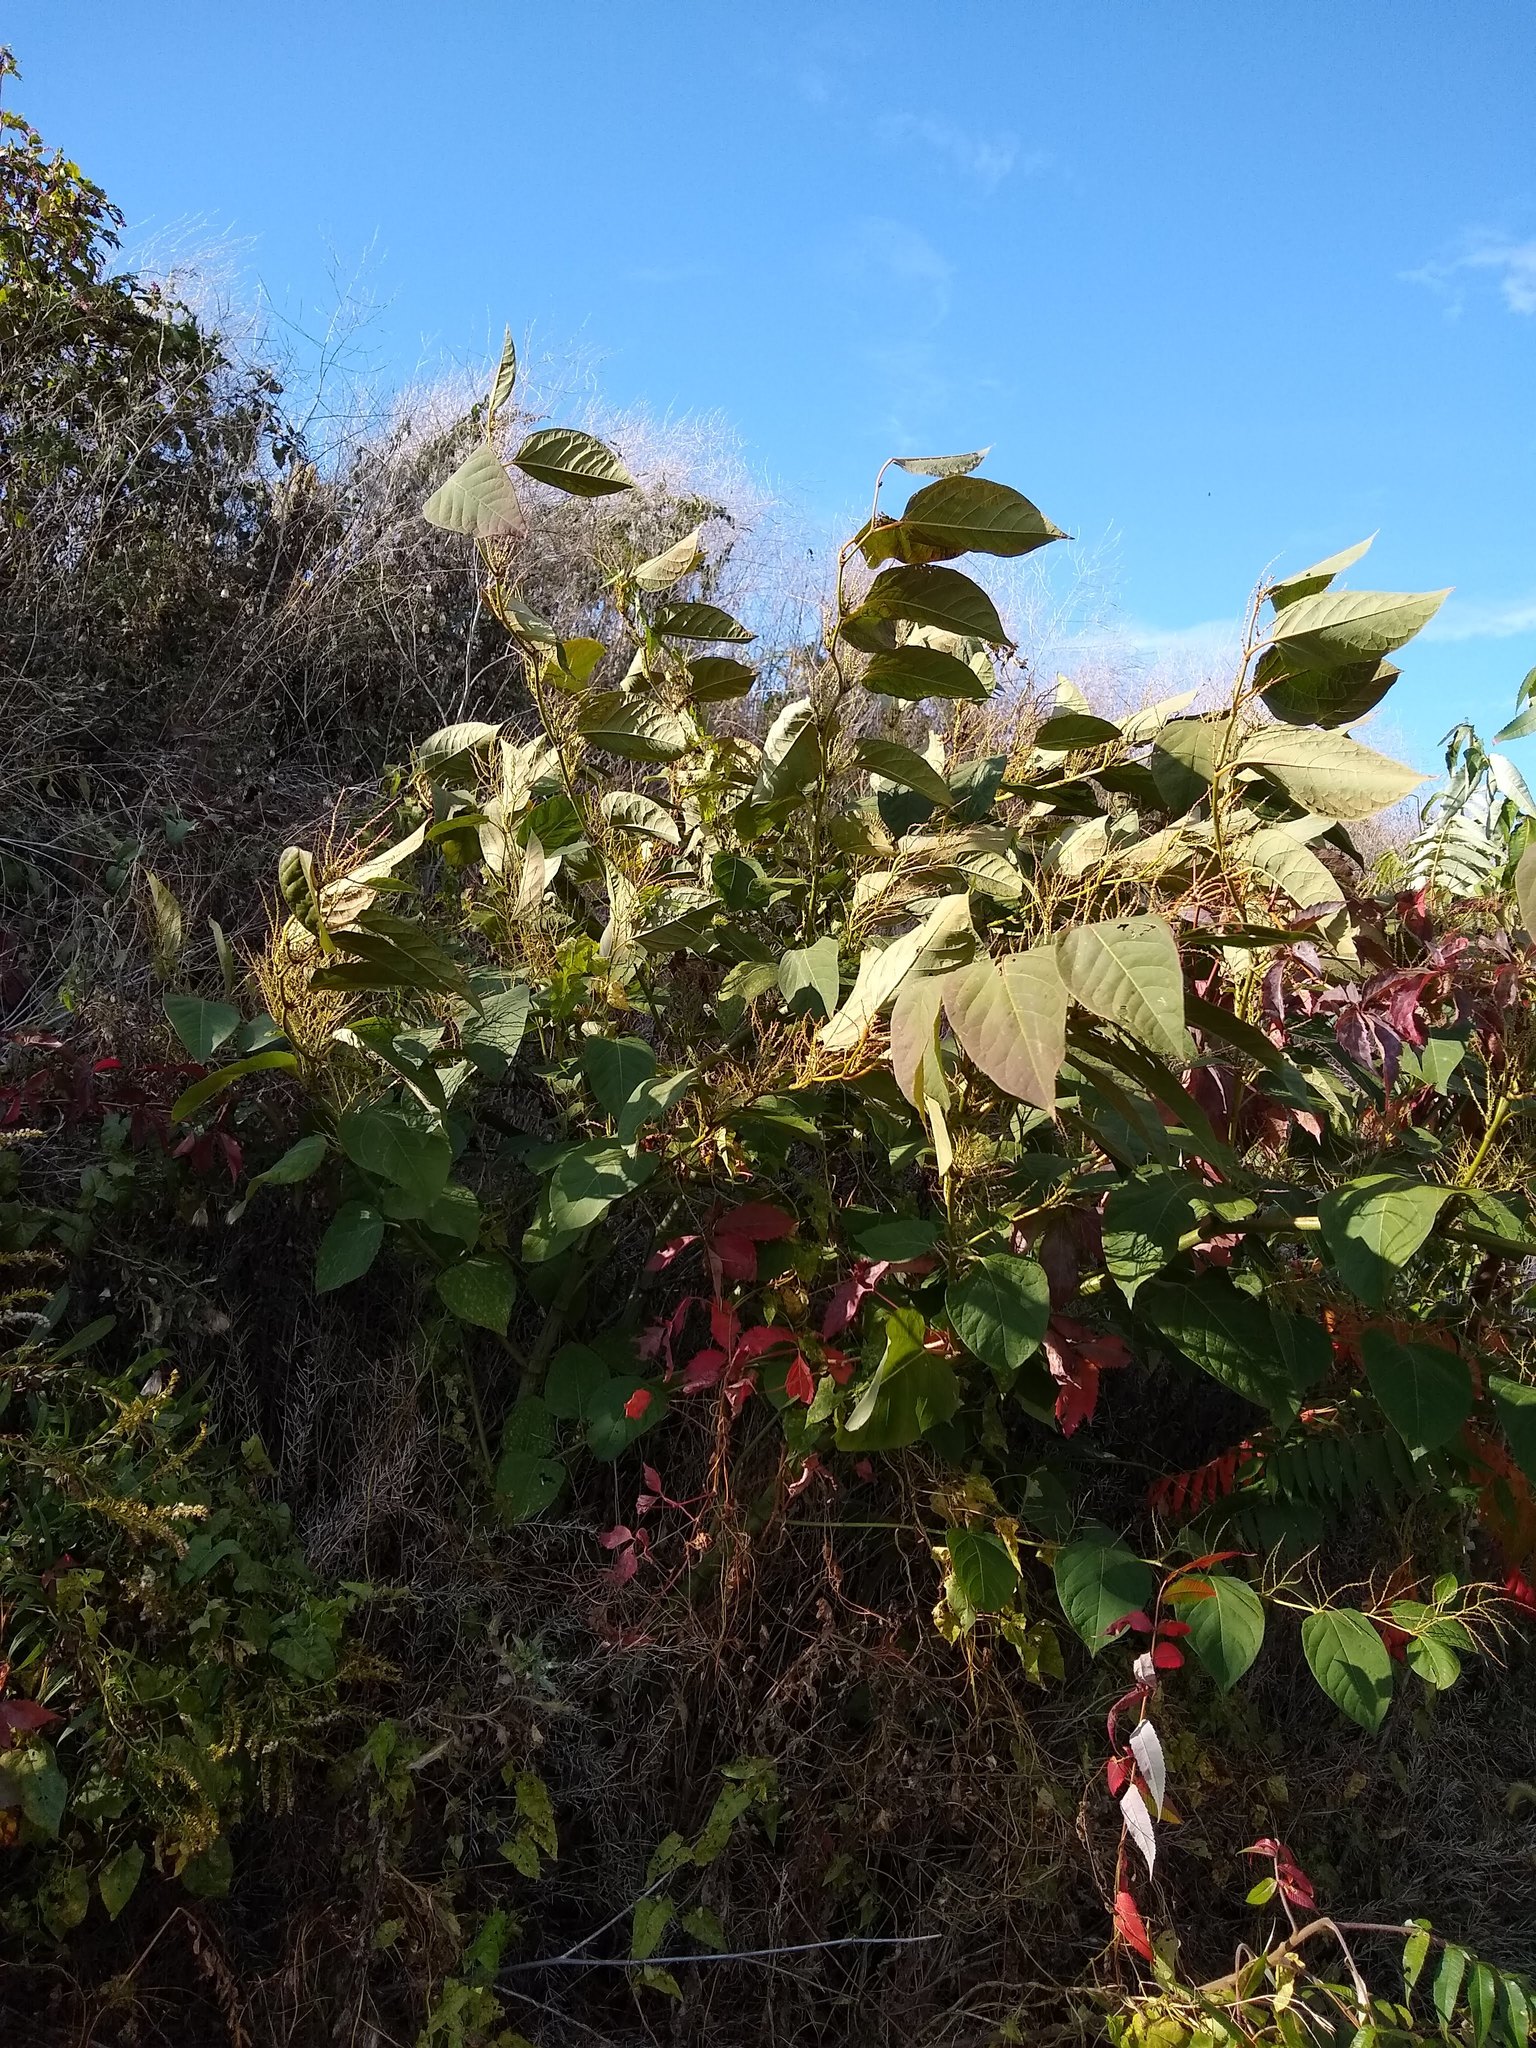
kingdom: Plantae
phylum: Tracheophyta
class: Magnoliopsida
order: Caryophyllales
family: Polygonaceae
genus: Reynoutria
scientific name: Reynoutria japonica
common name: Japanese knotweed
